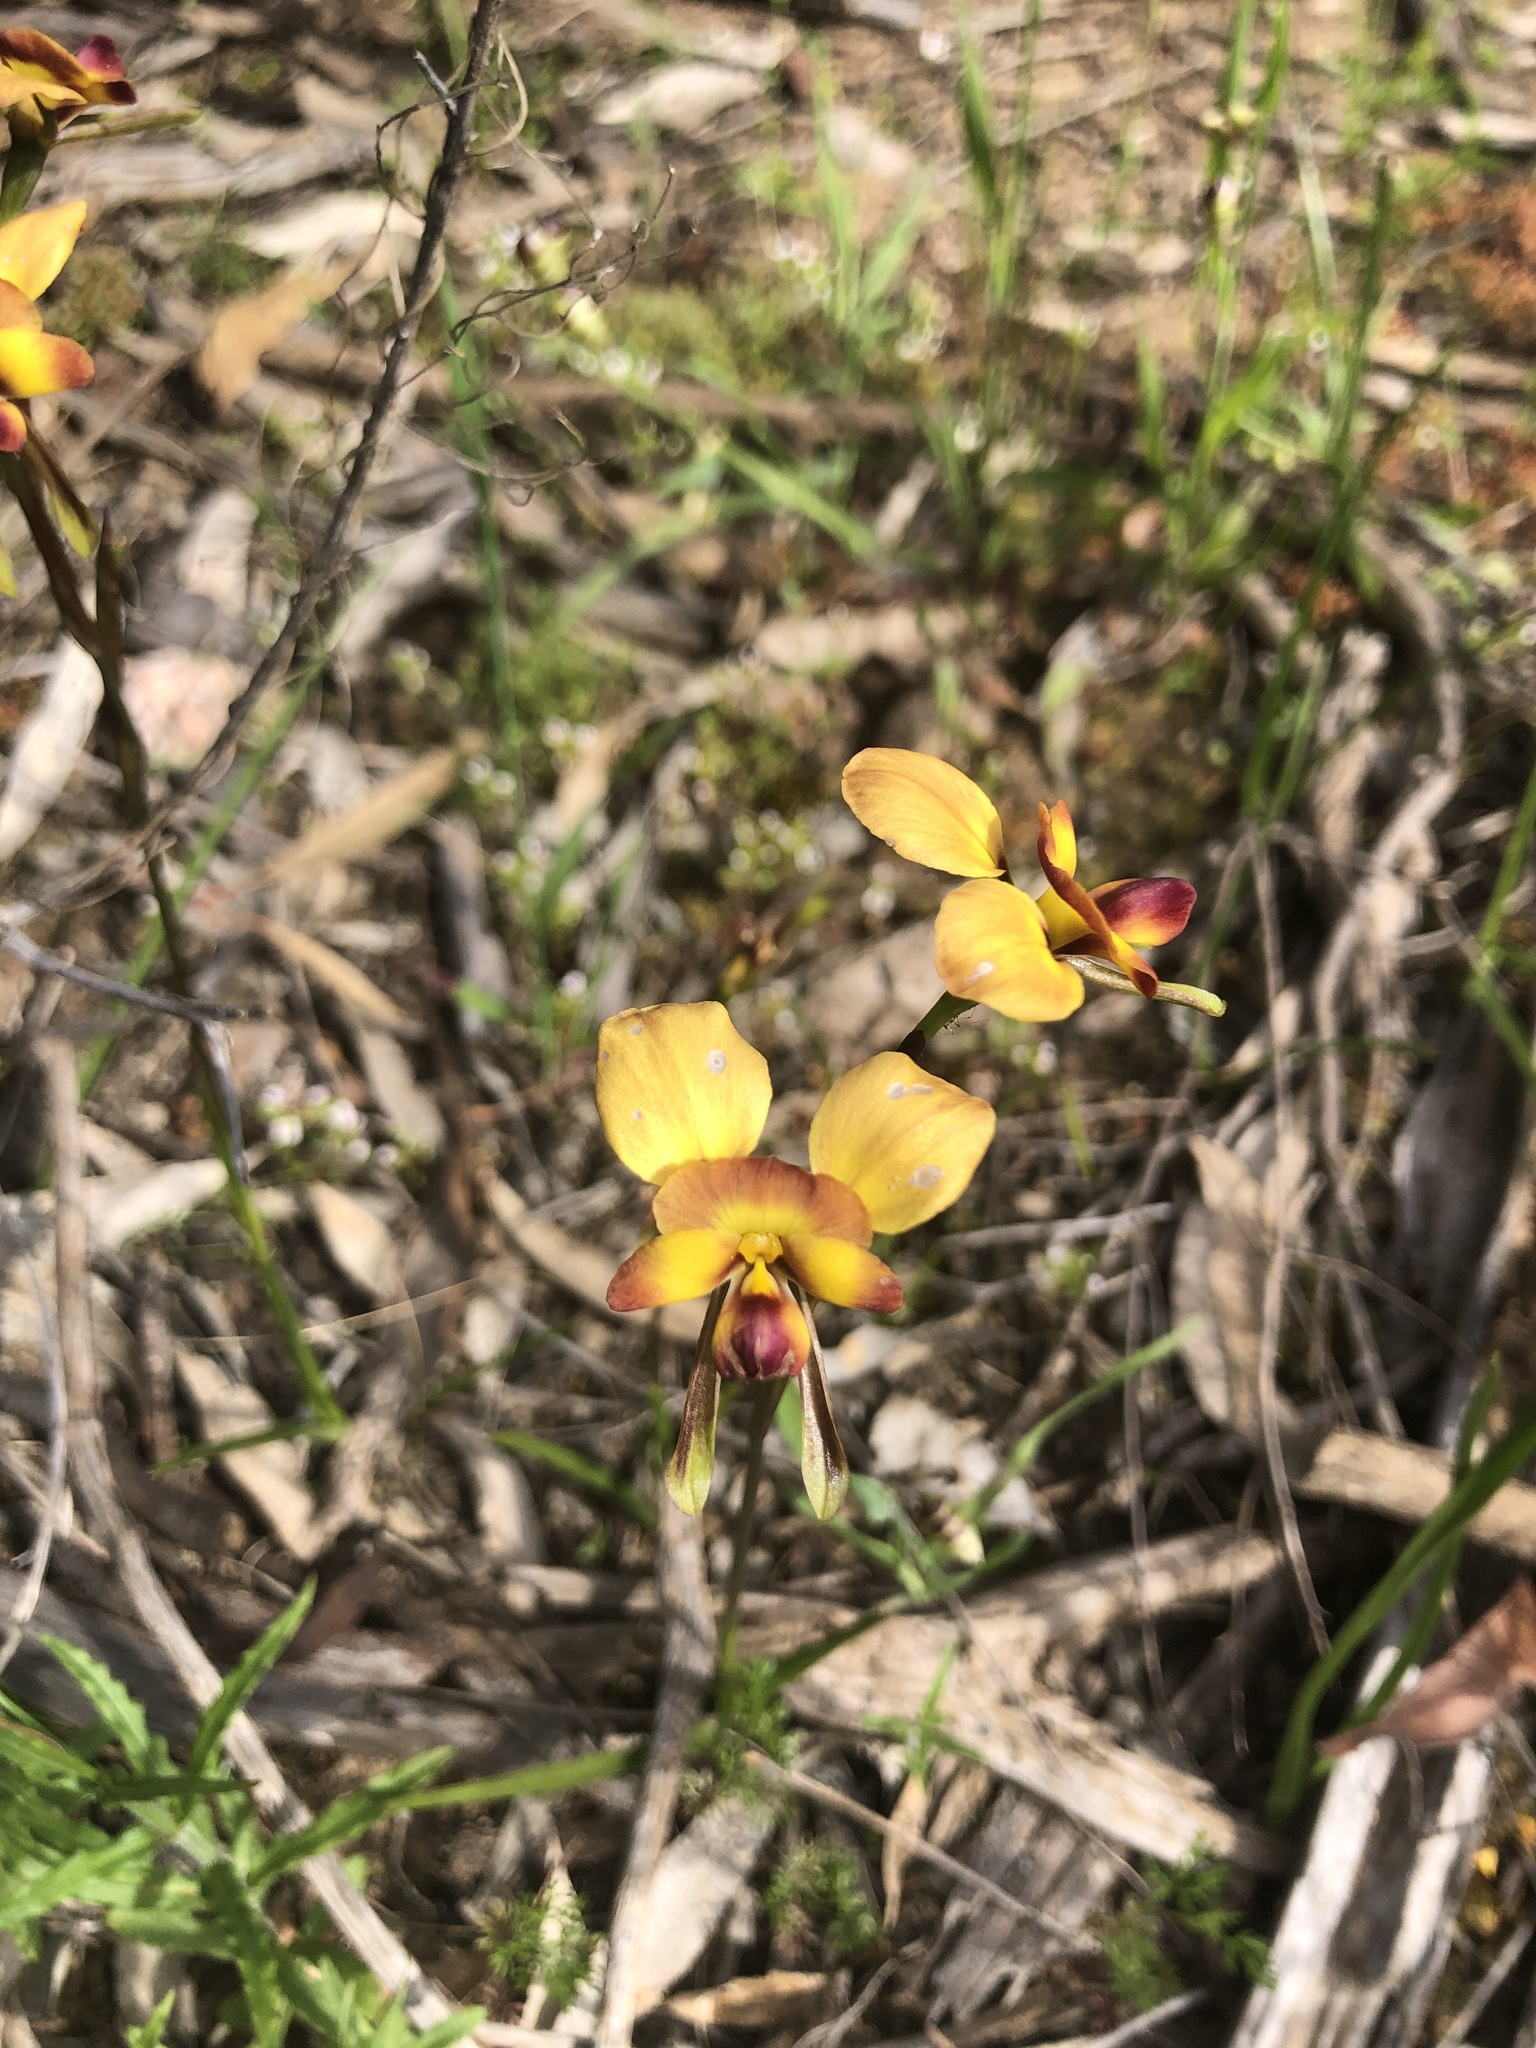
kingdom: Plantae
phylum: Tracheophyta
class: Liliopsida
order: Asparagales
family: Orchidaceae
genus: Diuris
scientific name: Diuris orientis
